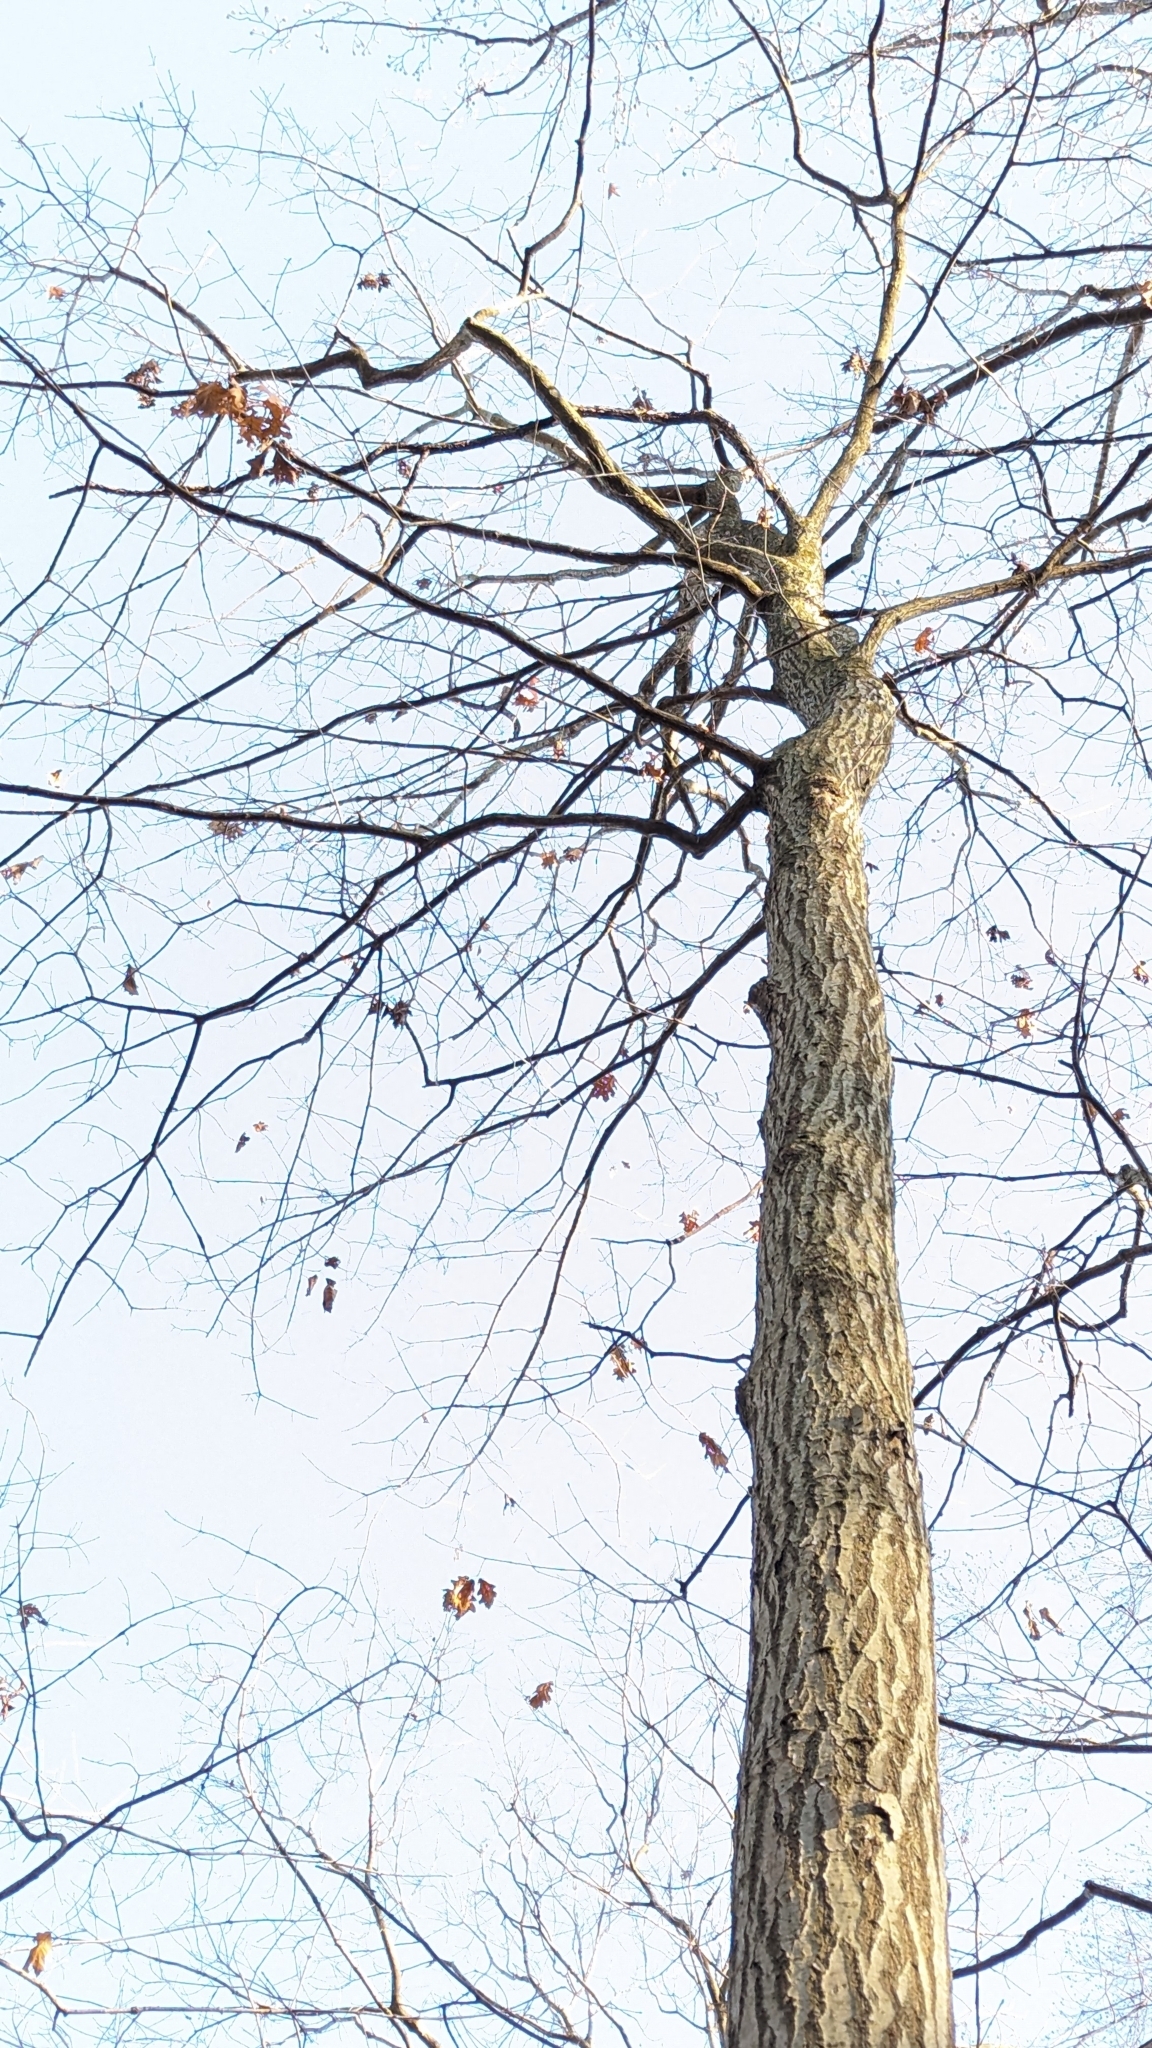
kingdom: Plantae
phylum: Tracheophyta
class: Magnoliopsida
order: Fagales
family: Fagaceae
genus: Quercus
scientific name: Quercus rubra
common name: Red oak
